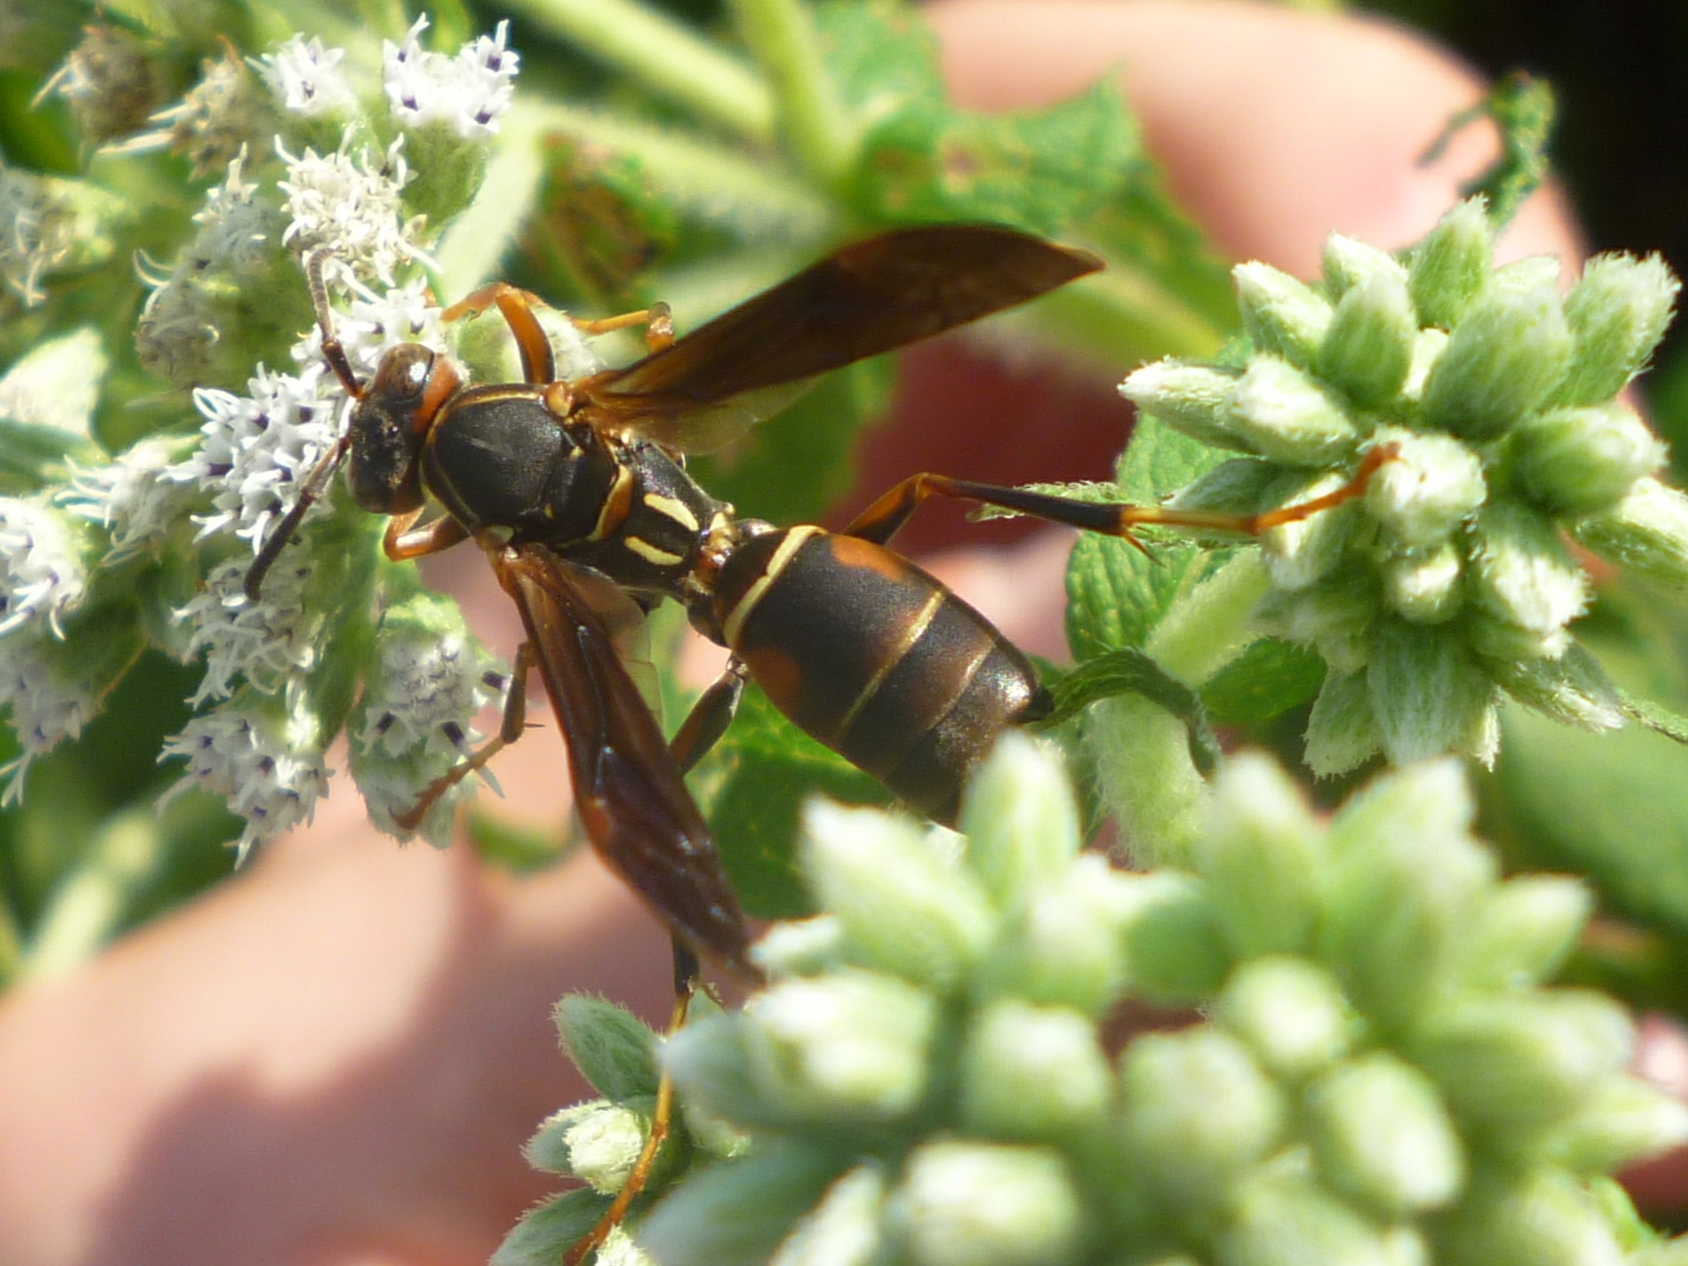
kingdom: Animalia
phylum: Arthropoda
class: Insecta
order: Hymenoptera
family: Eumenidae
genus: Polistes
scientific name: Polistes fuscatus
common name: Dark paper wasp
